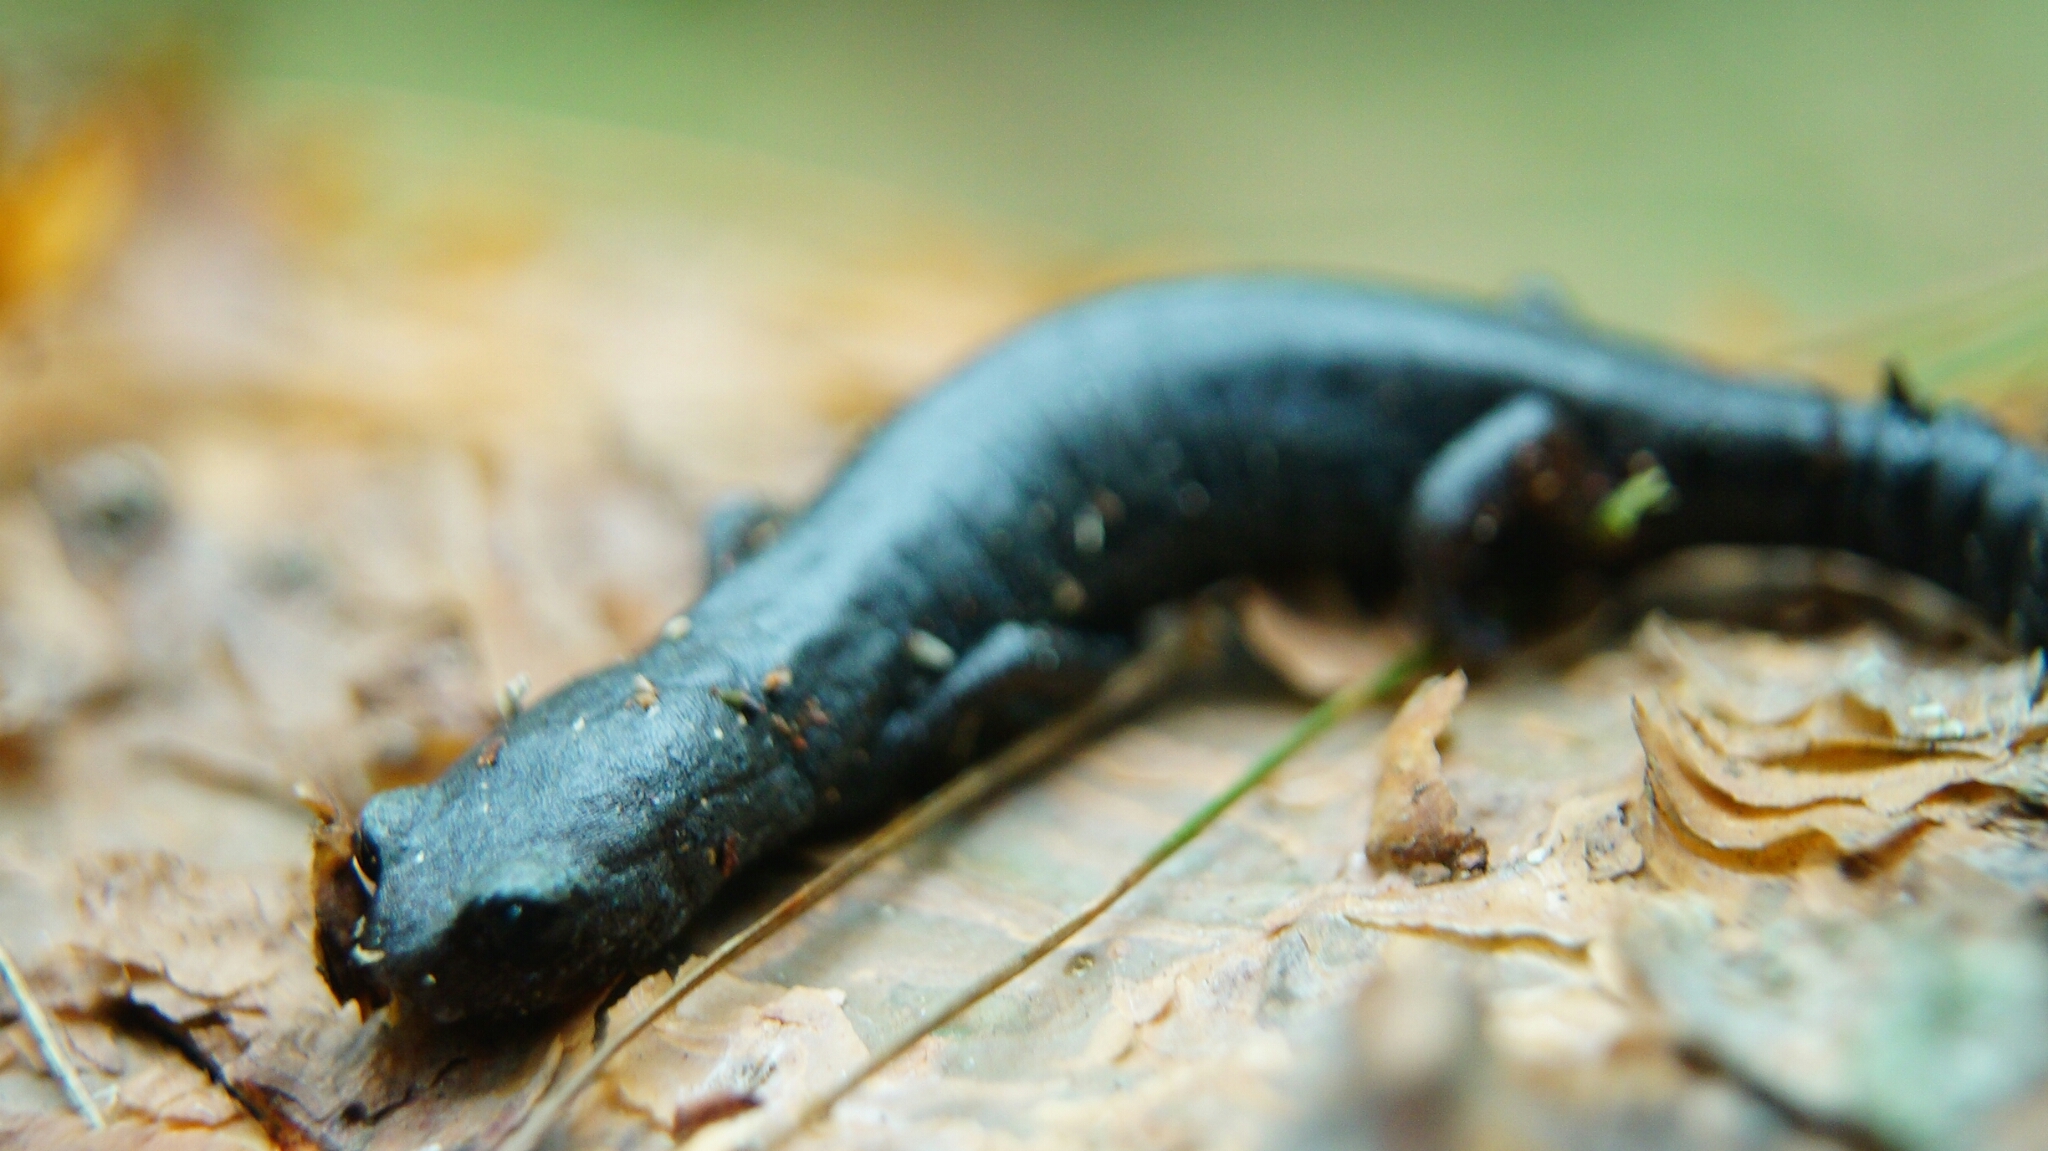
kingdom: Animalia
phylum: Chordata
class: Amphibia
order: Caudata
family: Plethodontidae
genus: Aquiloeurycea
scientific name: Aquiloeurycea cephalica
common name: Chunky false brook salamander
